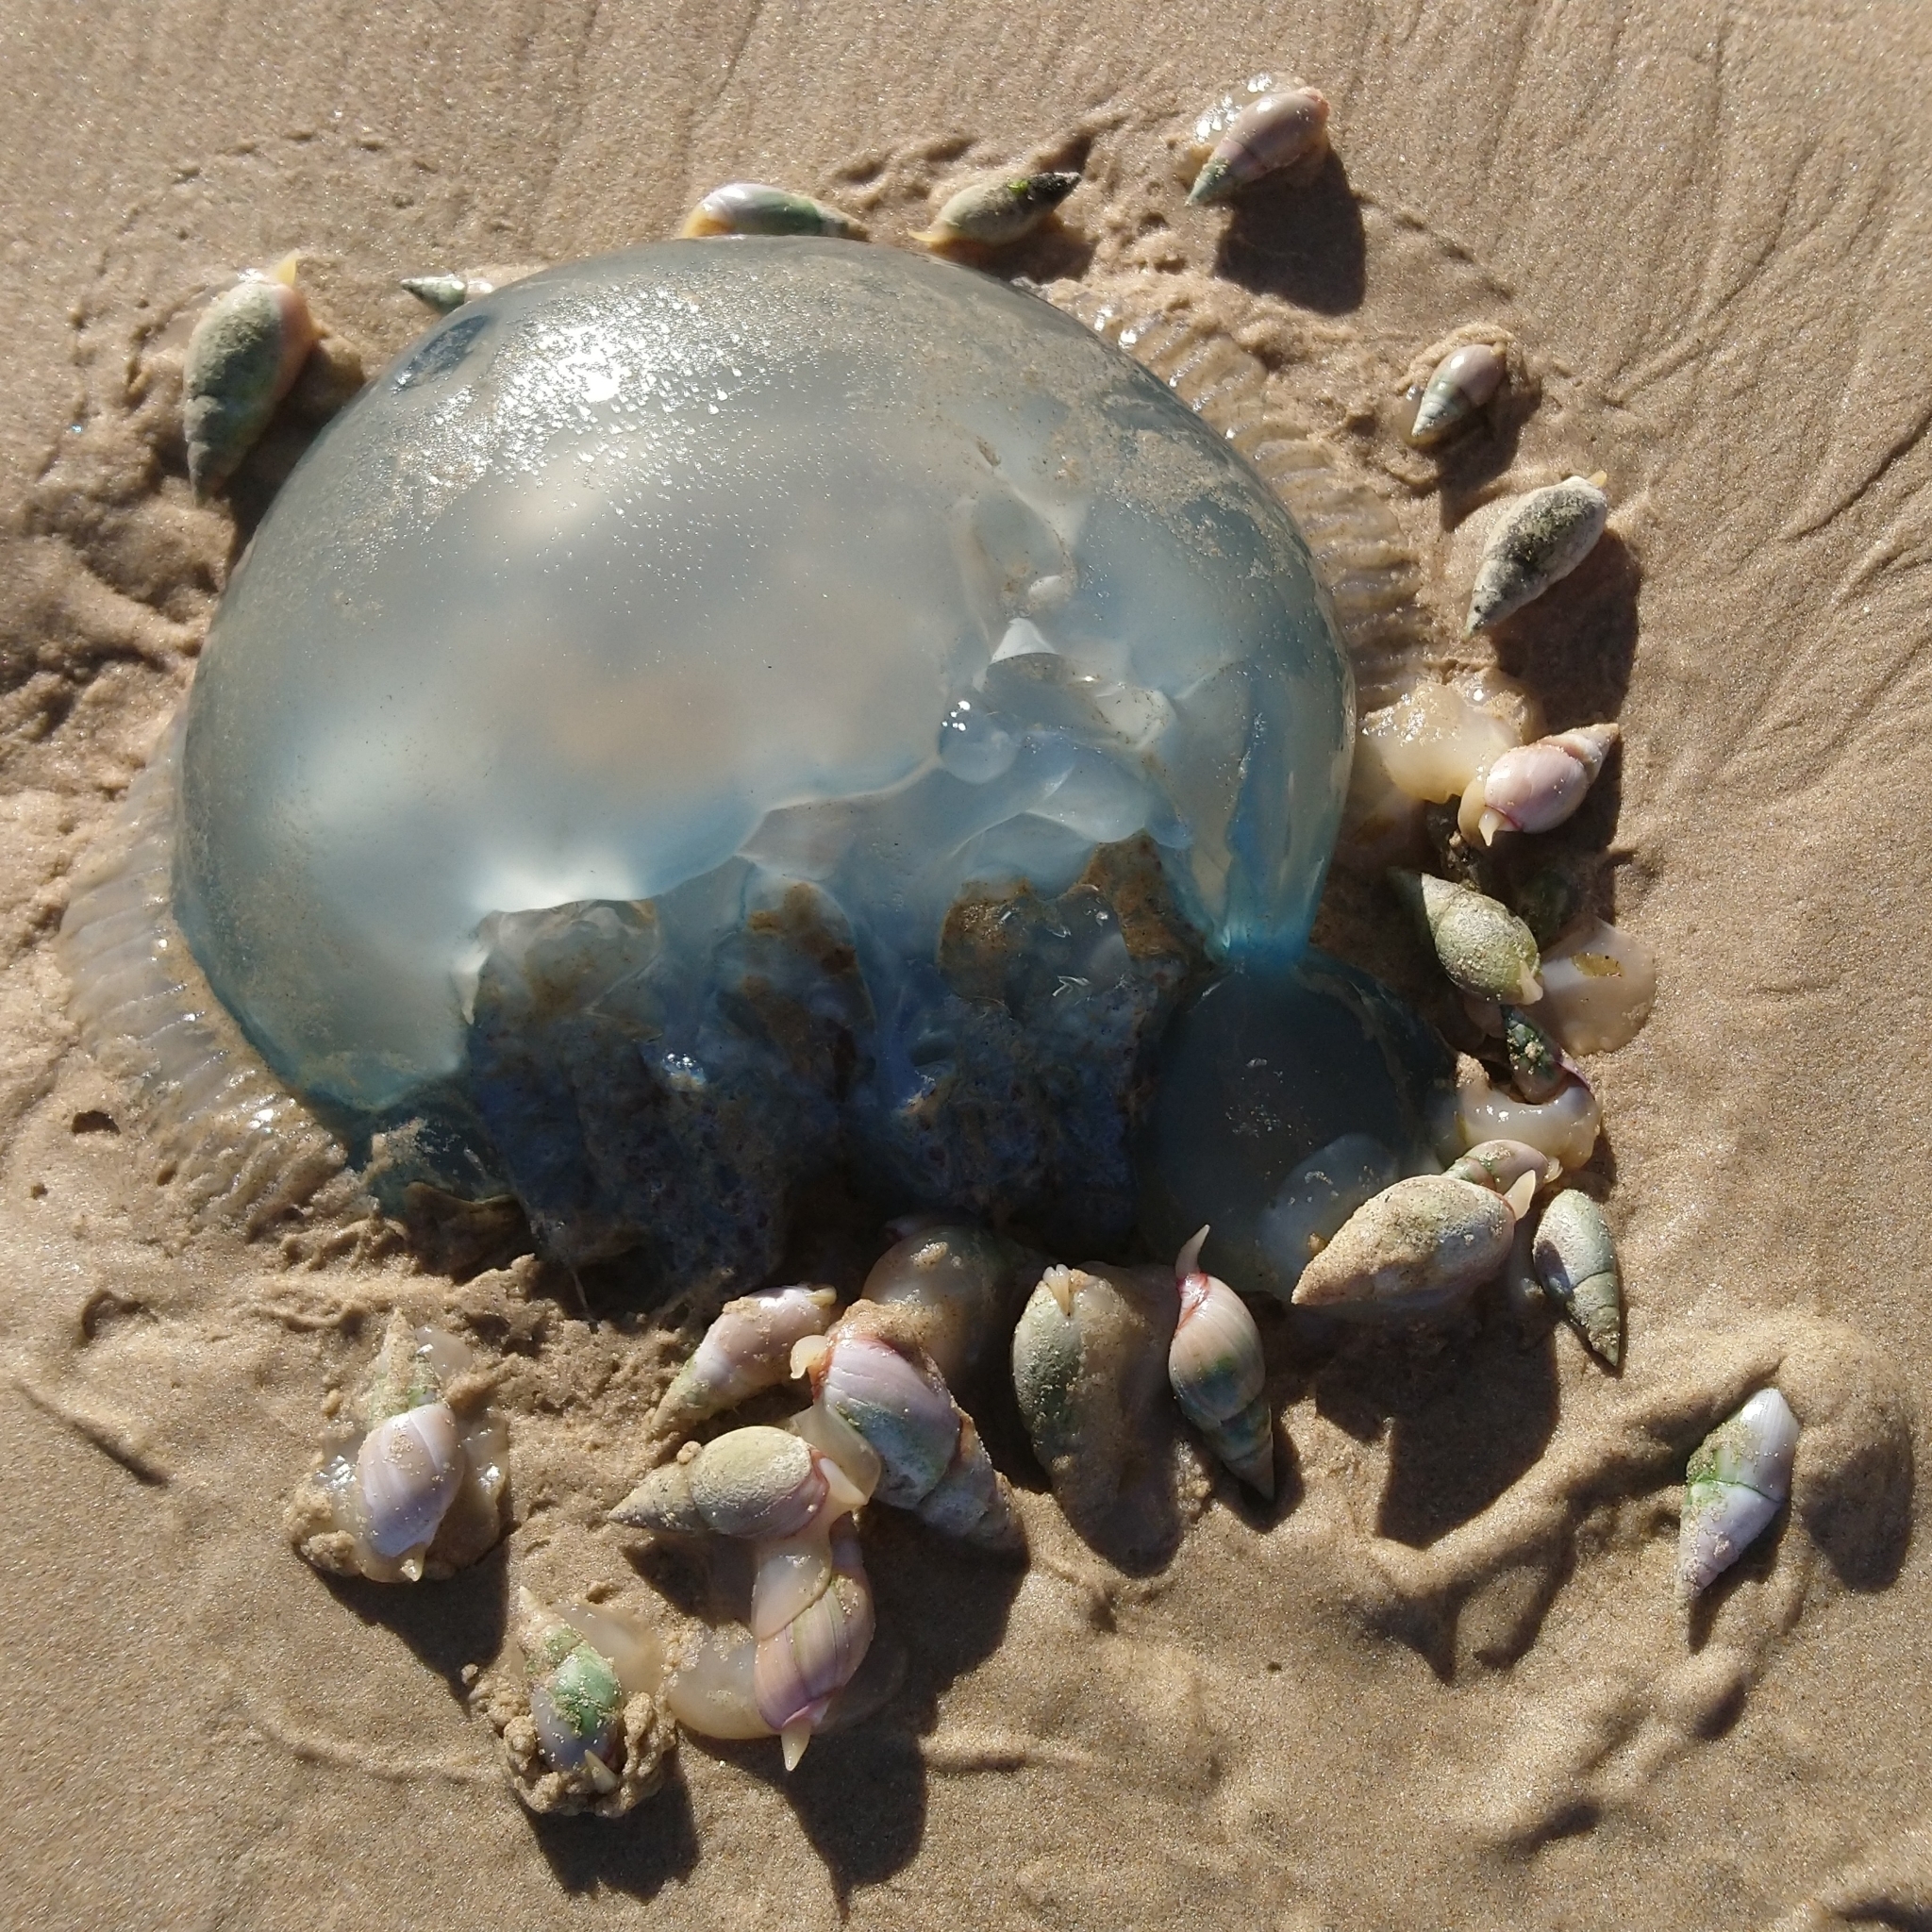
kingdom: Animalia
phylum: Mollusca
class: Gastropoda
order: Neogastropoda
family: Nassariidae
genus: Bullia
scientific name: Bullia rhodostoma
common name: Smooth plough shell
